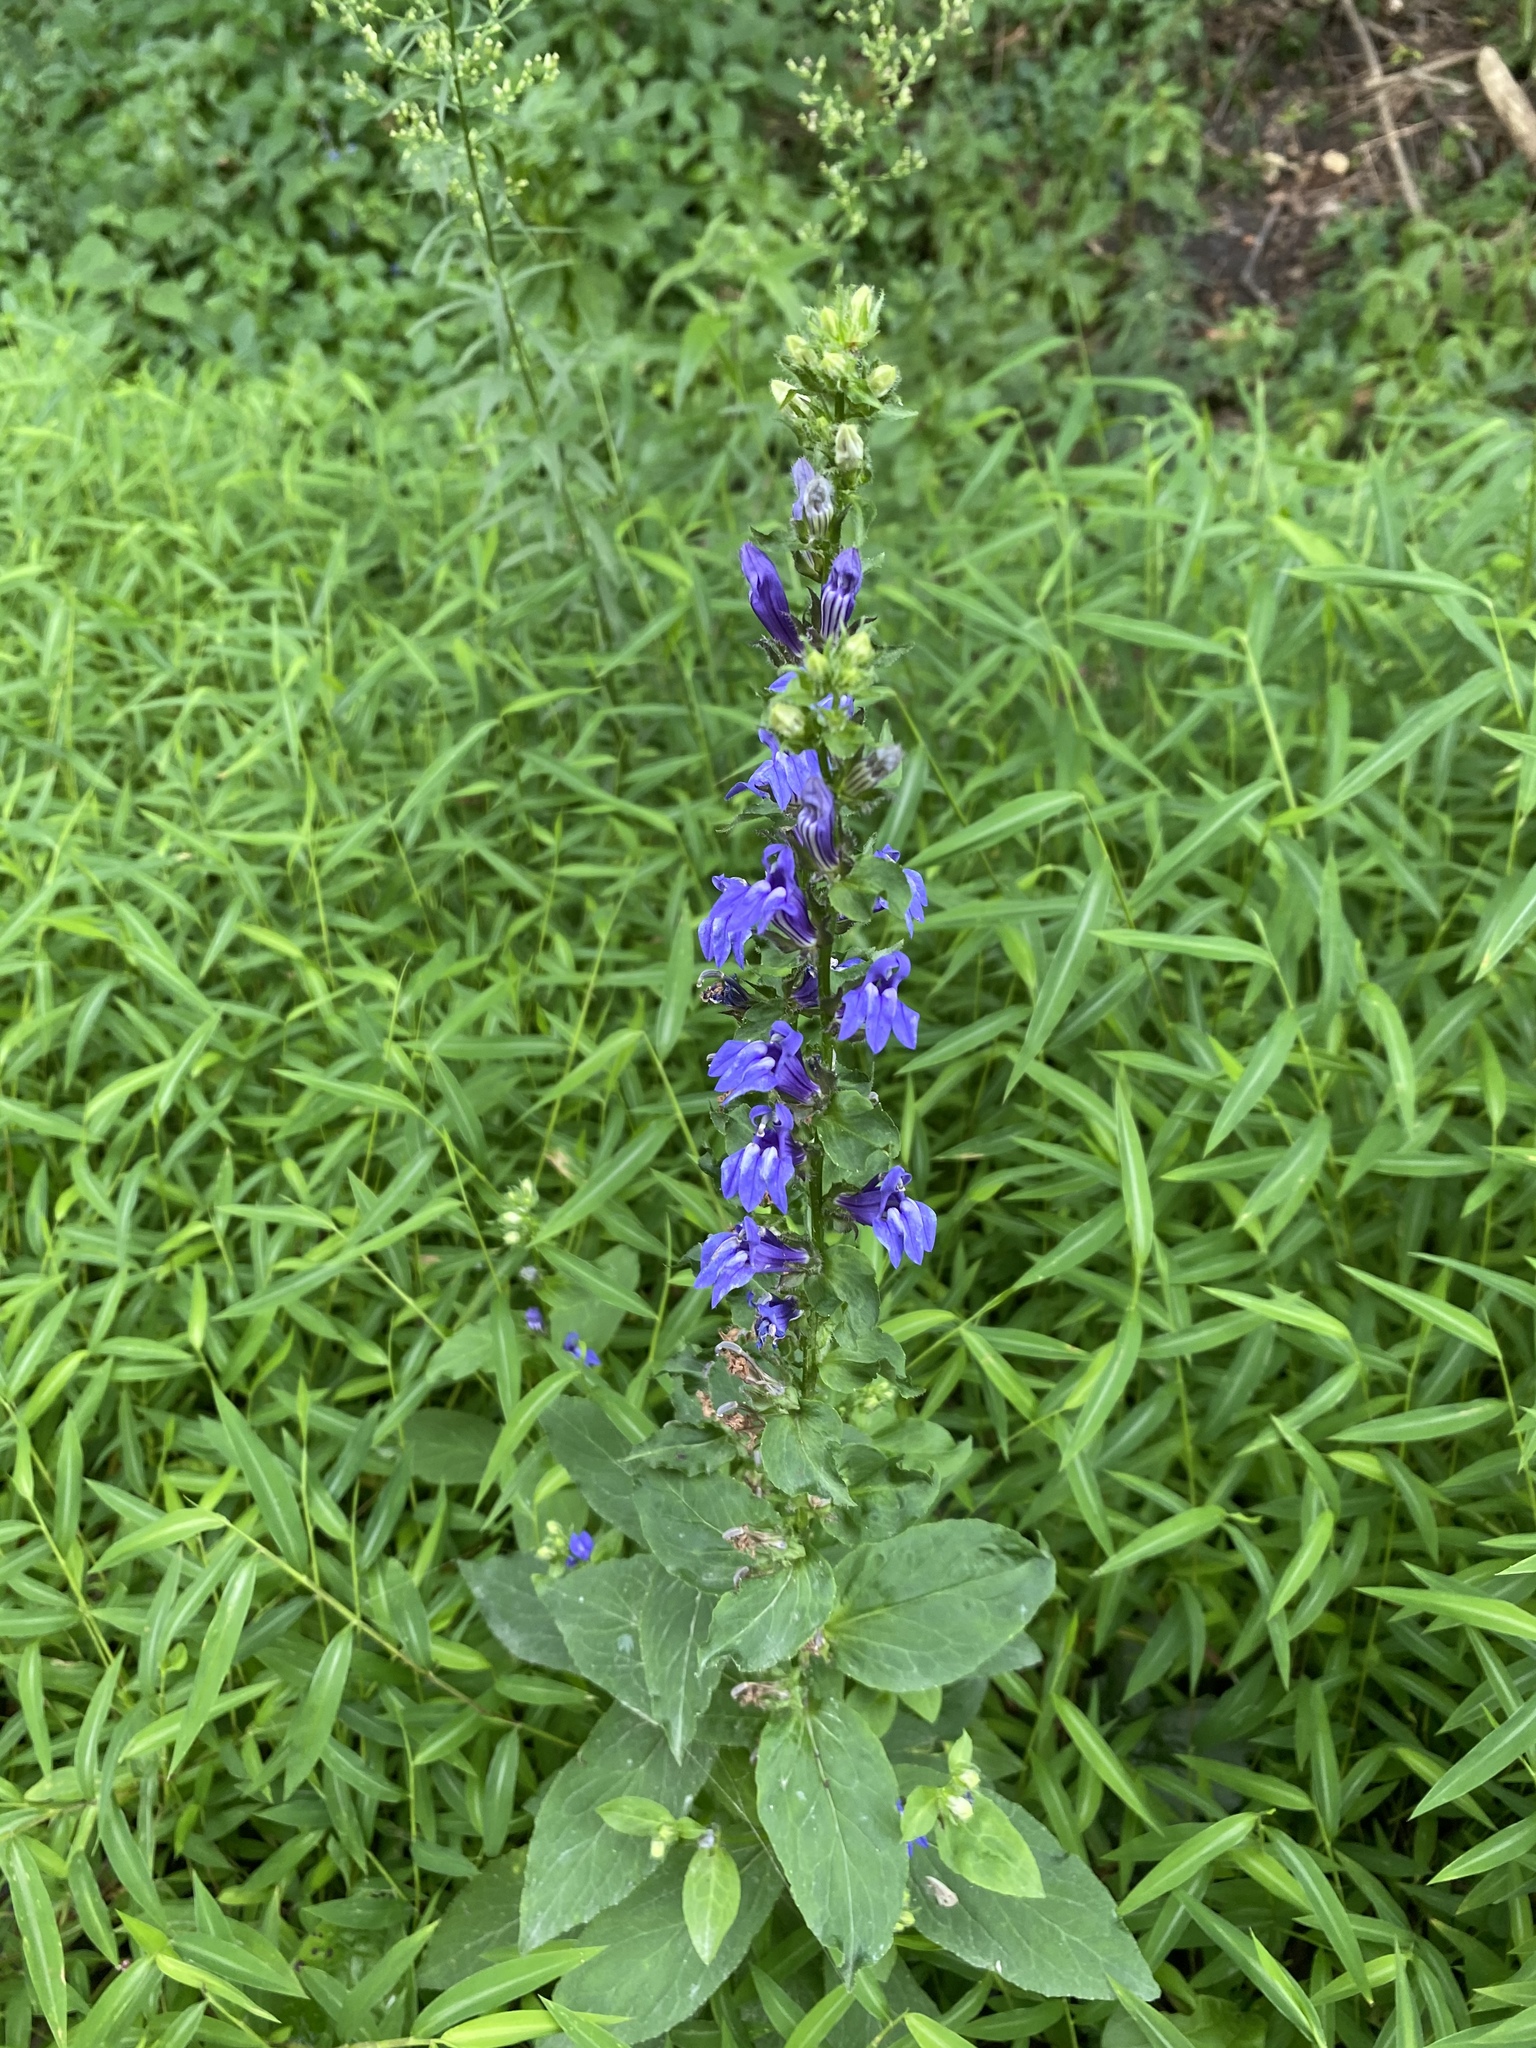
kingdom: Plantae
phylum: Tracheophyta
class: Magnoliopsida
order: Asterales
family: Campanulaceae
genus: Lobelia
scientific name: Lobelia siphilitica
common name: Great lobelia
